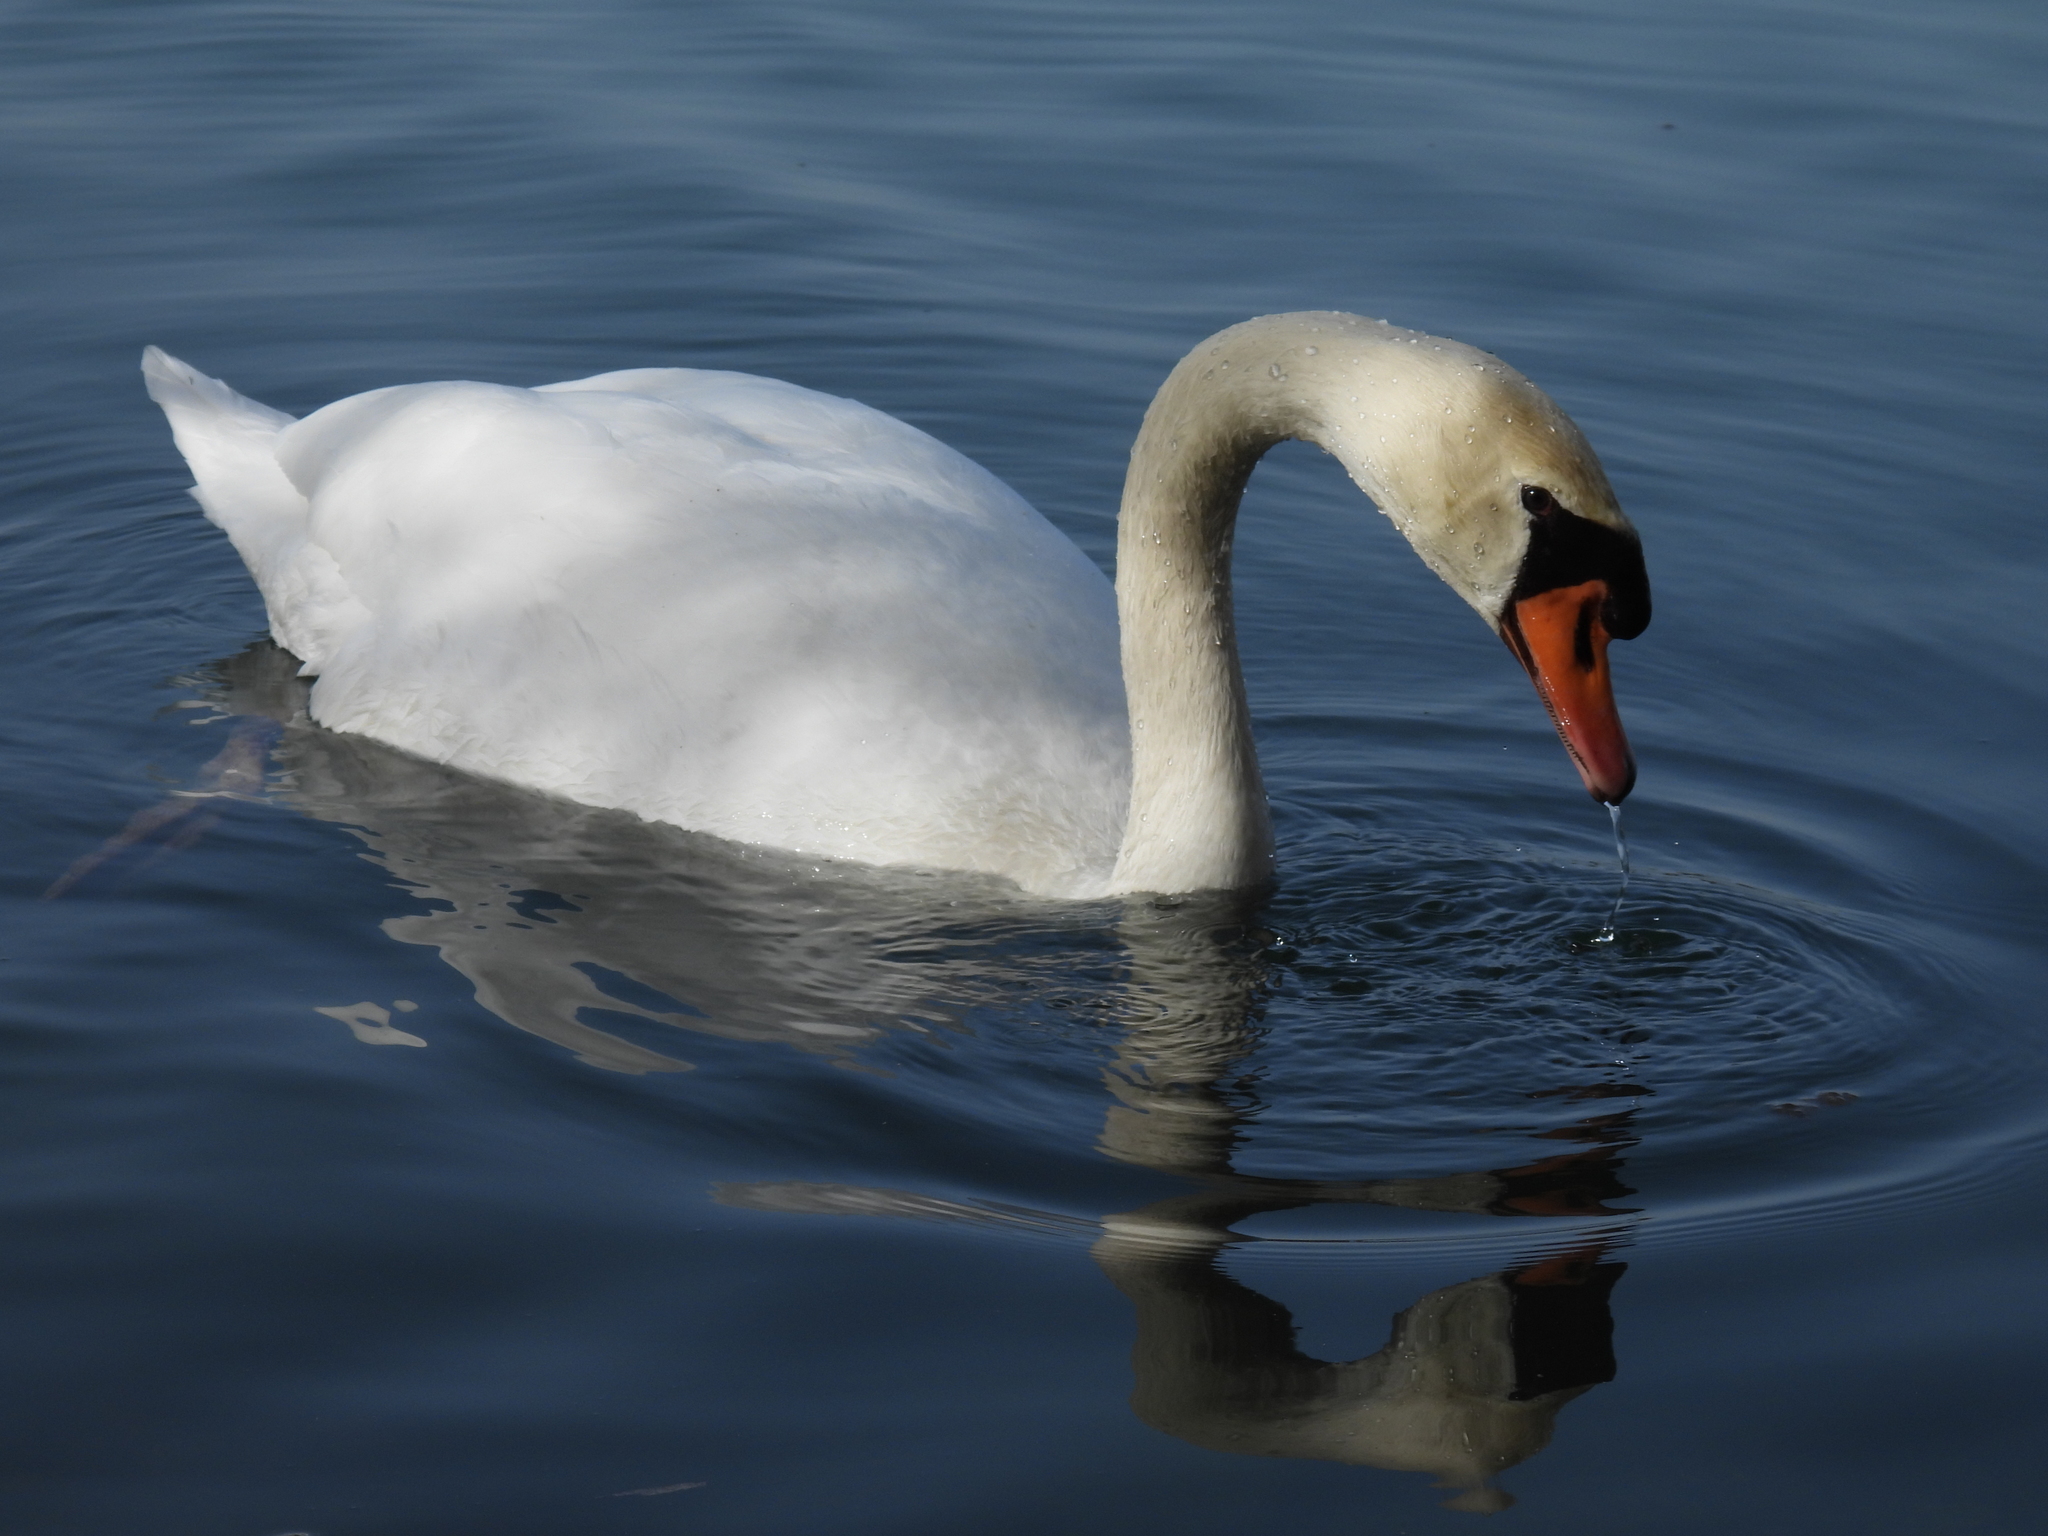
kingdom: Animalia
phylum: Chordata
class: Aves
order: Anseriformes
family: Anatidae
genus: Cygnus
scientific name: Cygnus olor
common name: Mute swan
